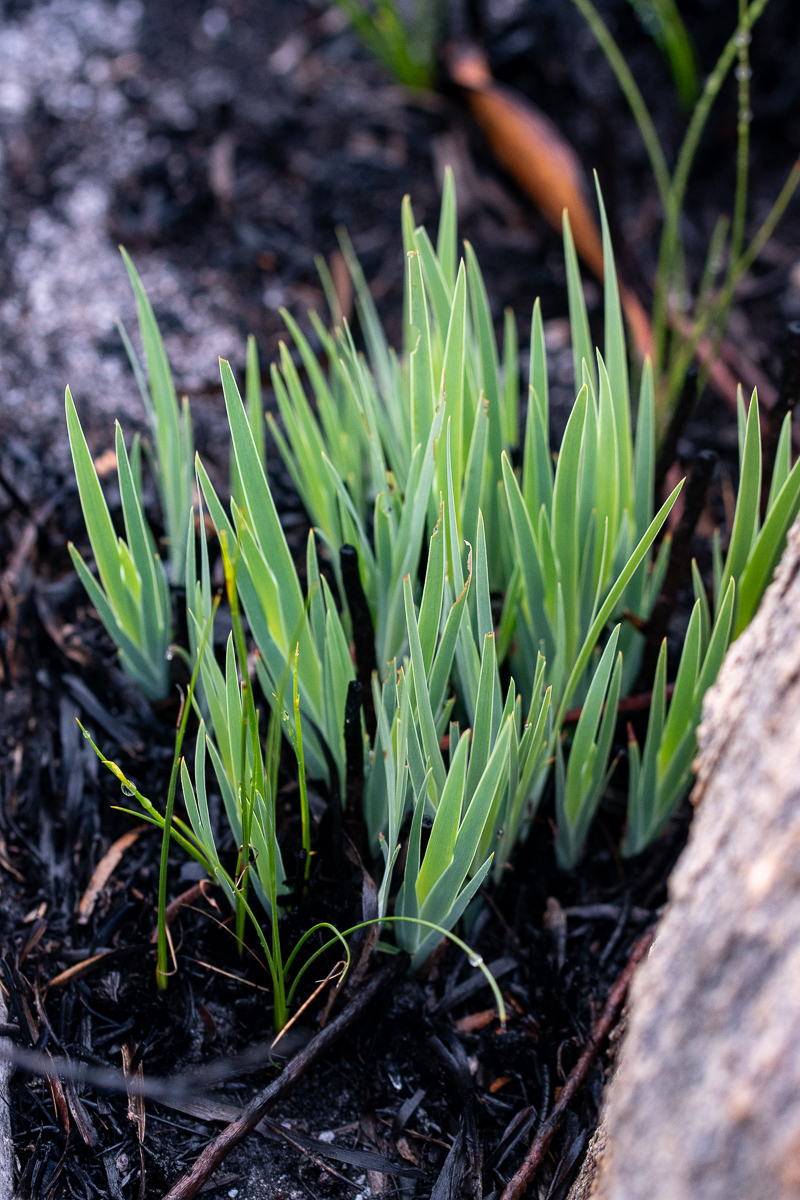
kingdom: Plantae
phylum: Tracheophyta
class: Liliopsida
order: Asparagales
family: Iridaceae
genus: Nivenia
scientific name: Nivenia stokoei
